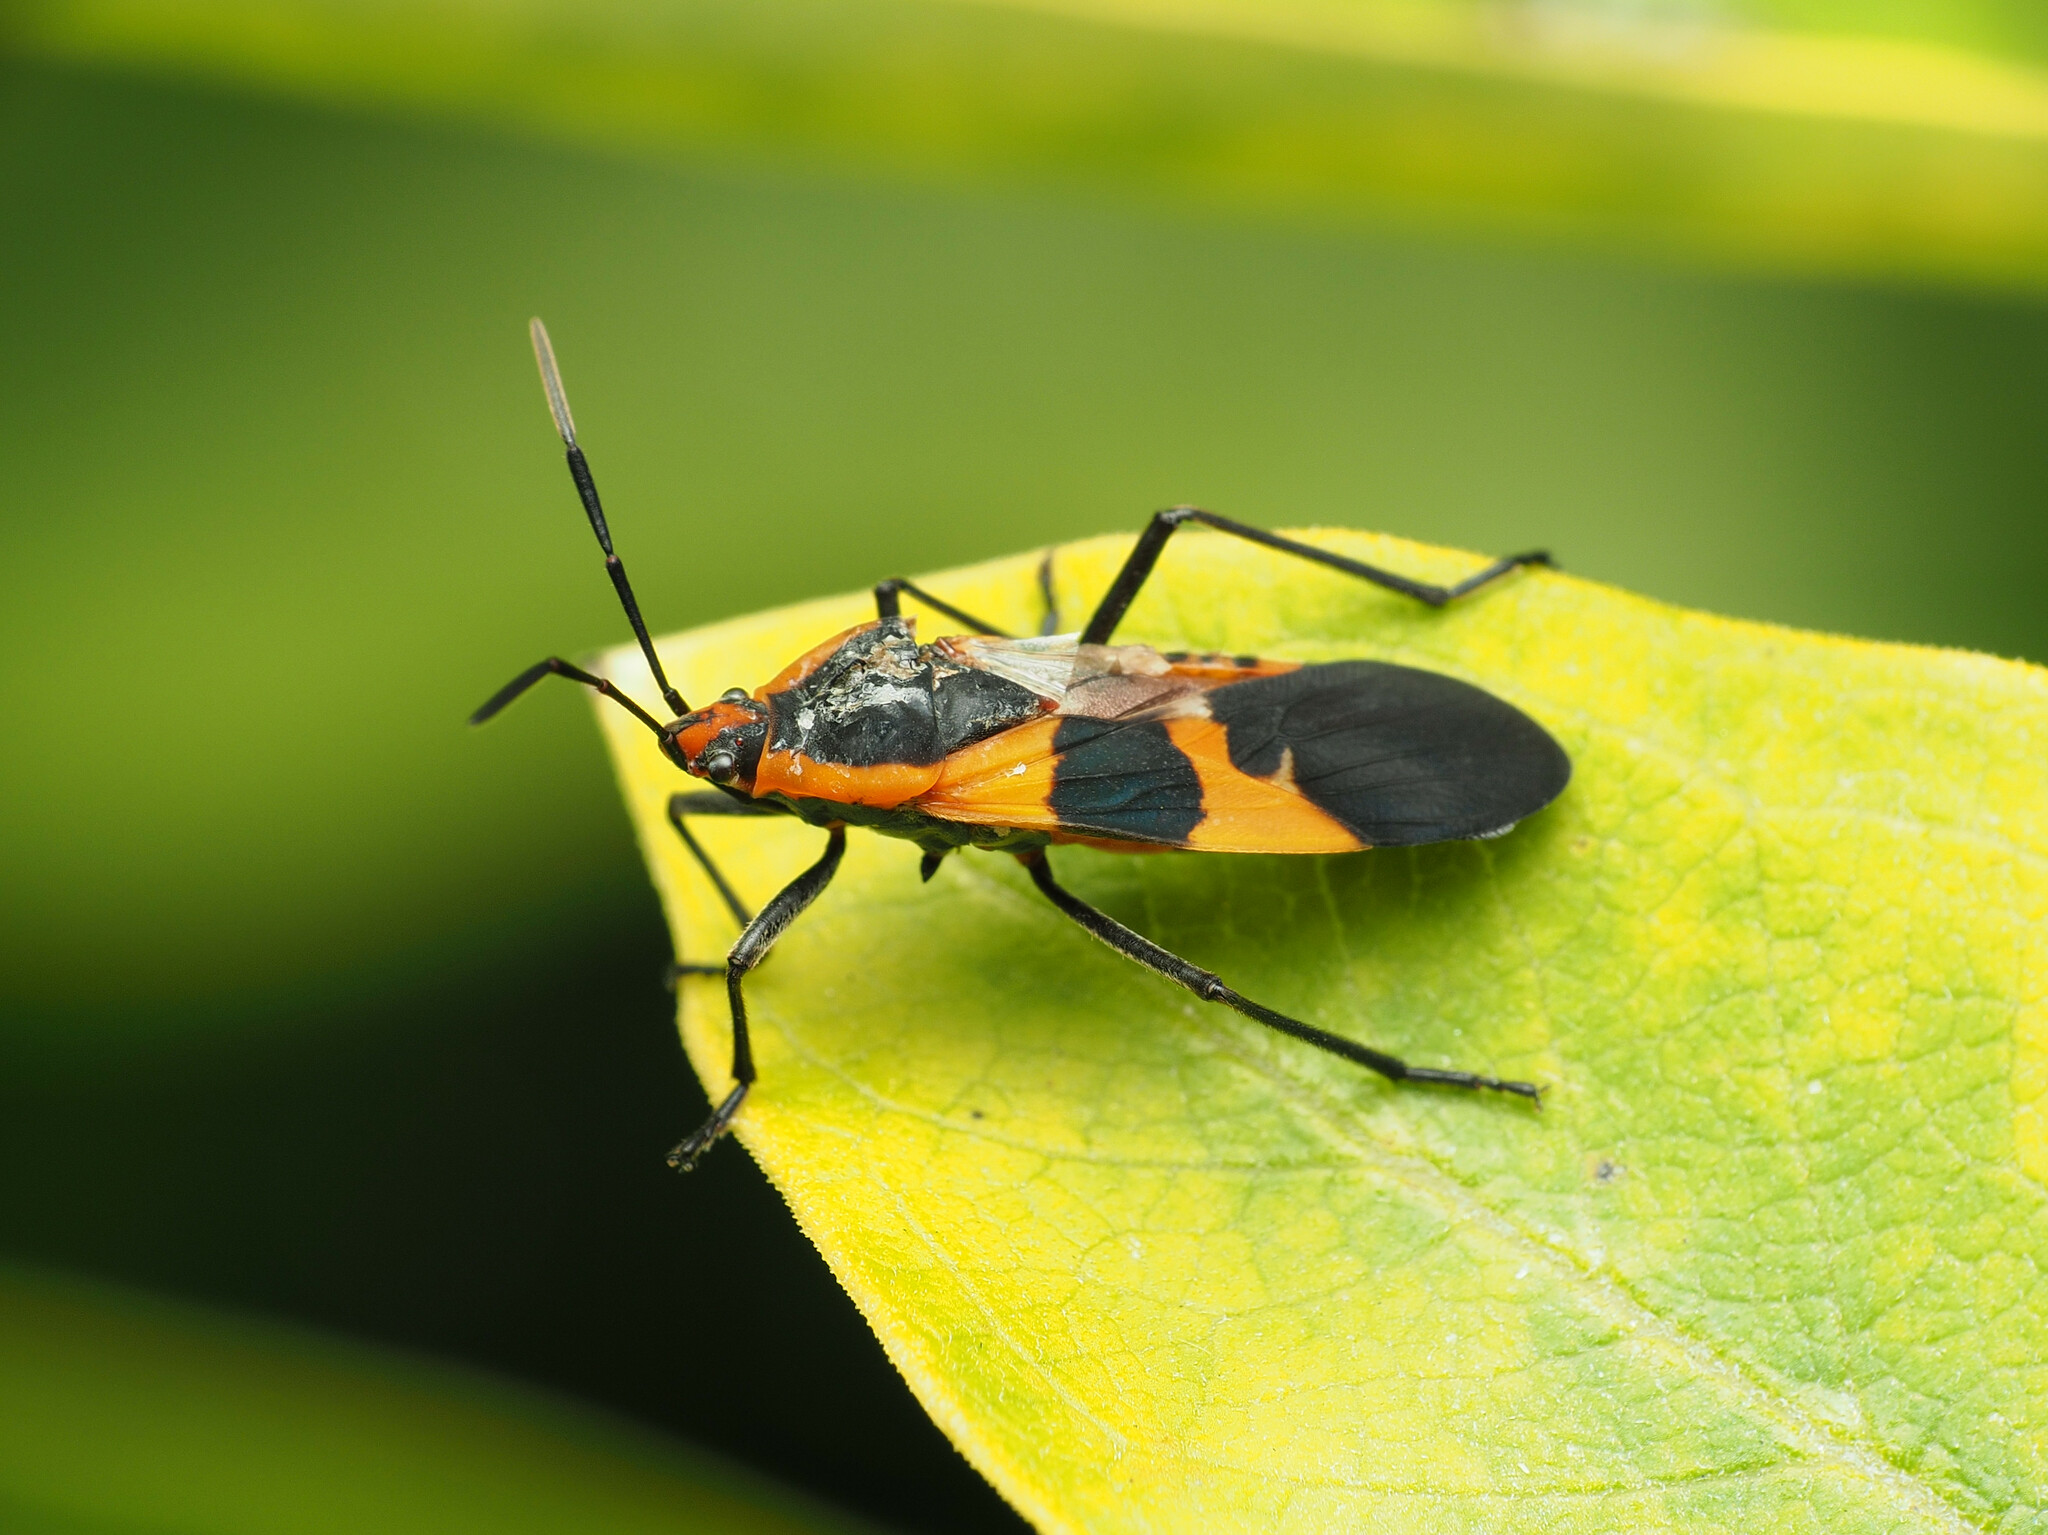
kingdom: Animalia
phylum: Arthropoda
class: Insecta
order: Hemiptera
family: Lygaeidae
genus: Oncopeltus
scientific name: Oncopeltus fasciatus
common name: Large milkweed bug
